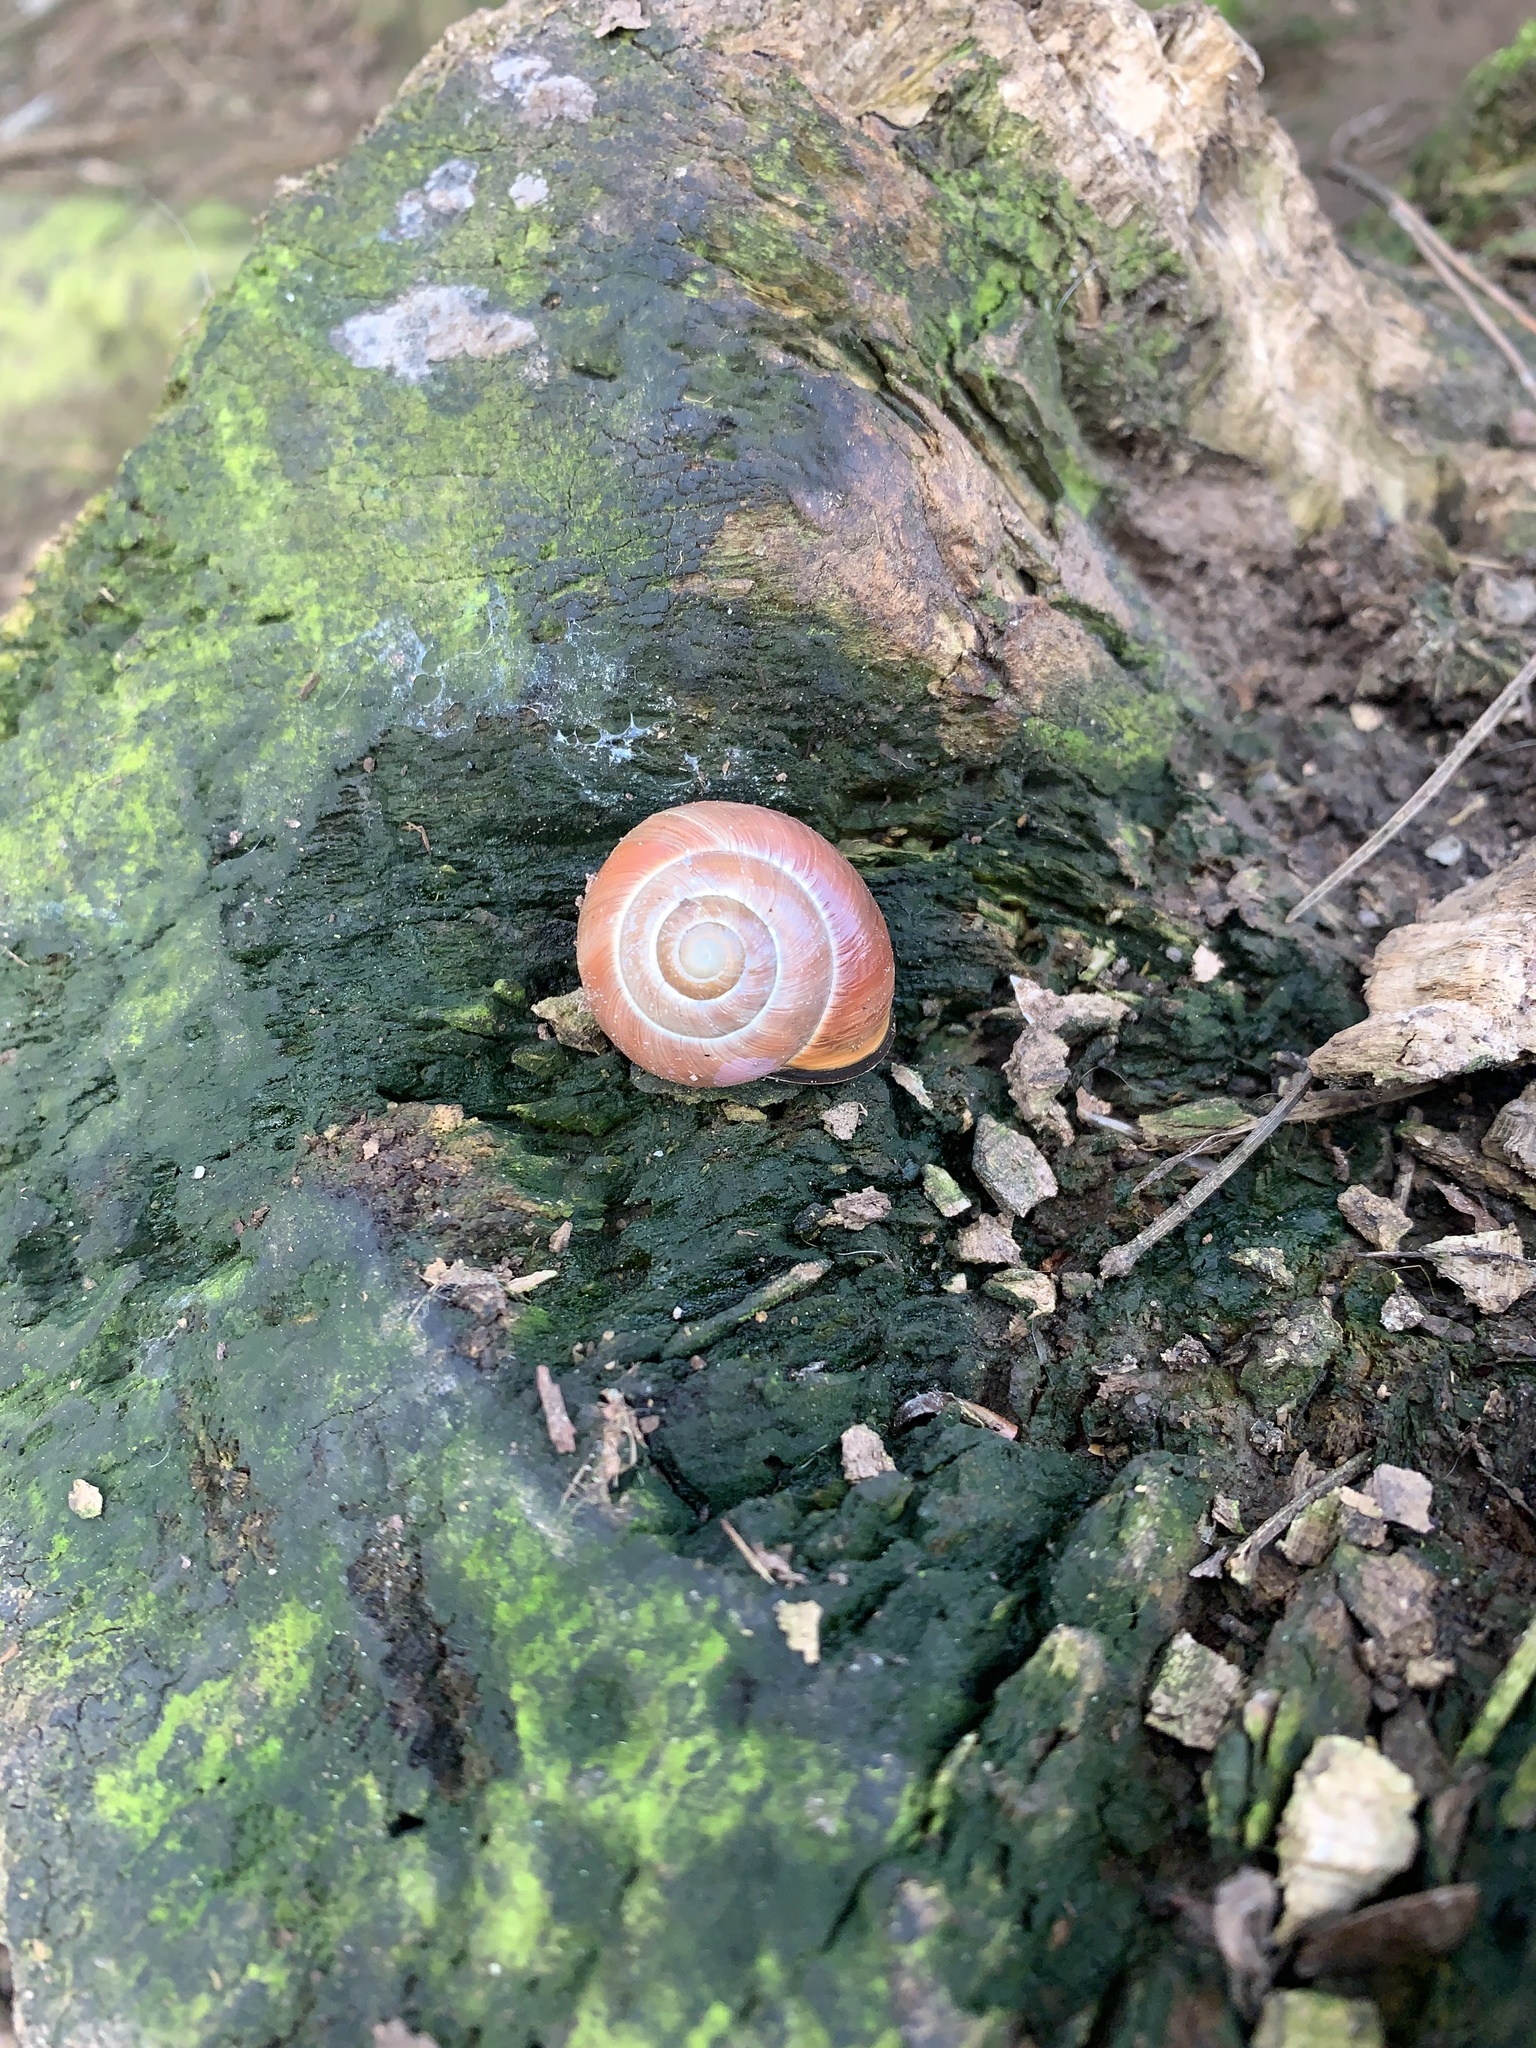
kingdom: Animalia
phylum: Mollusca
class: Gastropoda
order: Stylommatophora
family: Helicidae
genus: Cepaea
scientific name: Cepaea nemoralis
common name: Grovesnail
